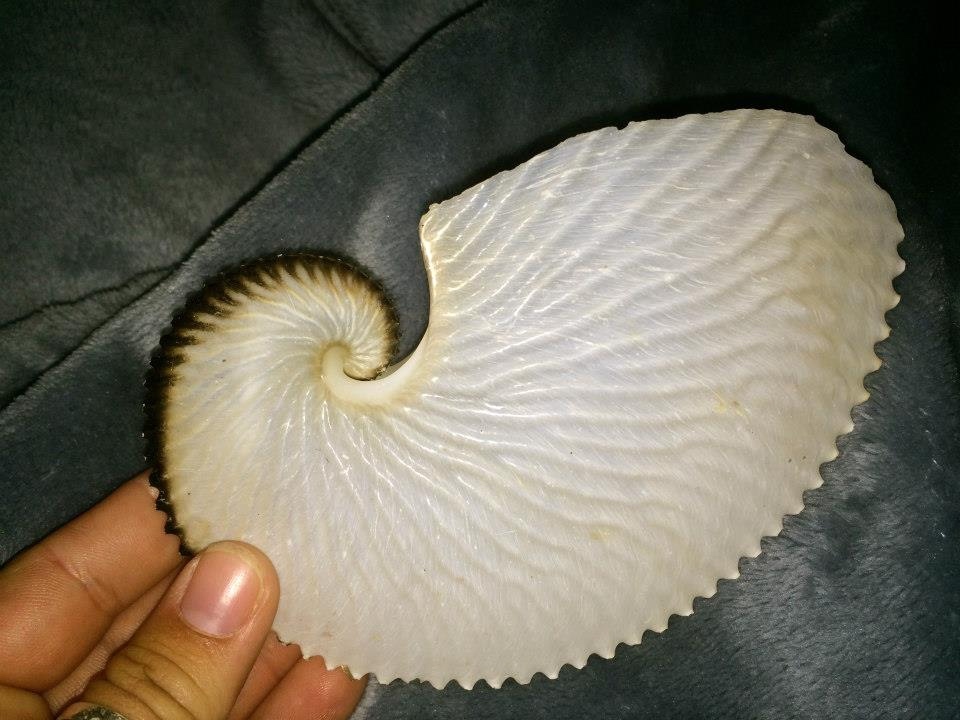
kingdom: Animalia
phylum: Mollusca
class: Cephalopoda
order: Octopoda
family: Argonautidae
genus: Argonauta
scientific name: Argonauta argo
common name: Common paper nautilus
